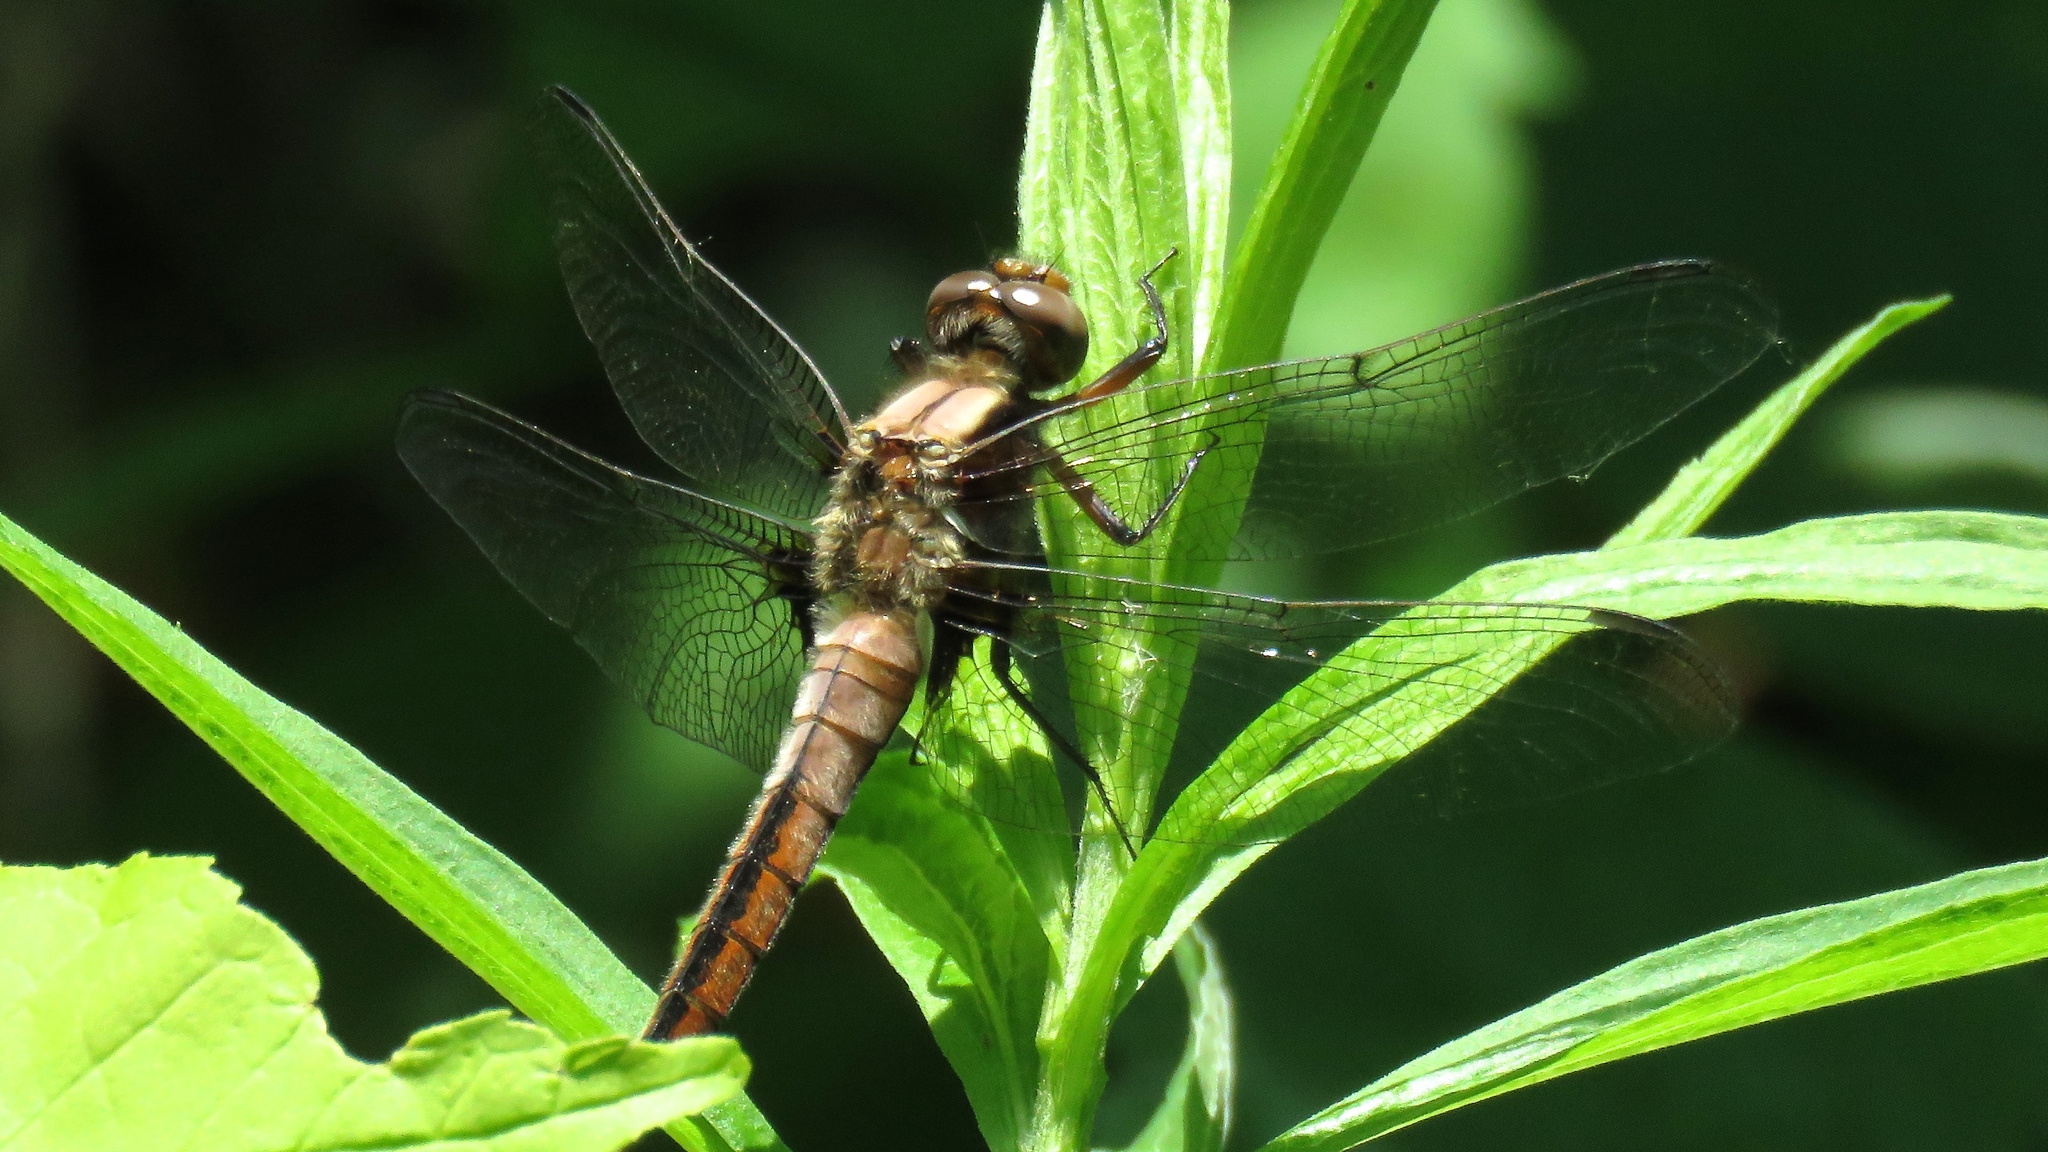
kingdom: Animalia
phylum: Arthropoda
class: Insecta
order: Odonata
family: Libellulidae
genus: Ladona
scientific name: Ladona julia
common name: Chalk-fronted corporal
